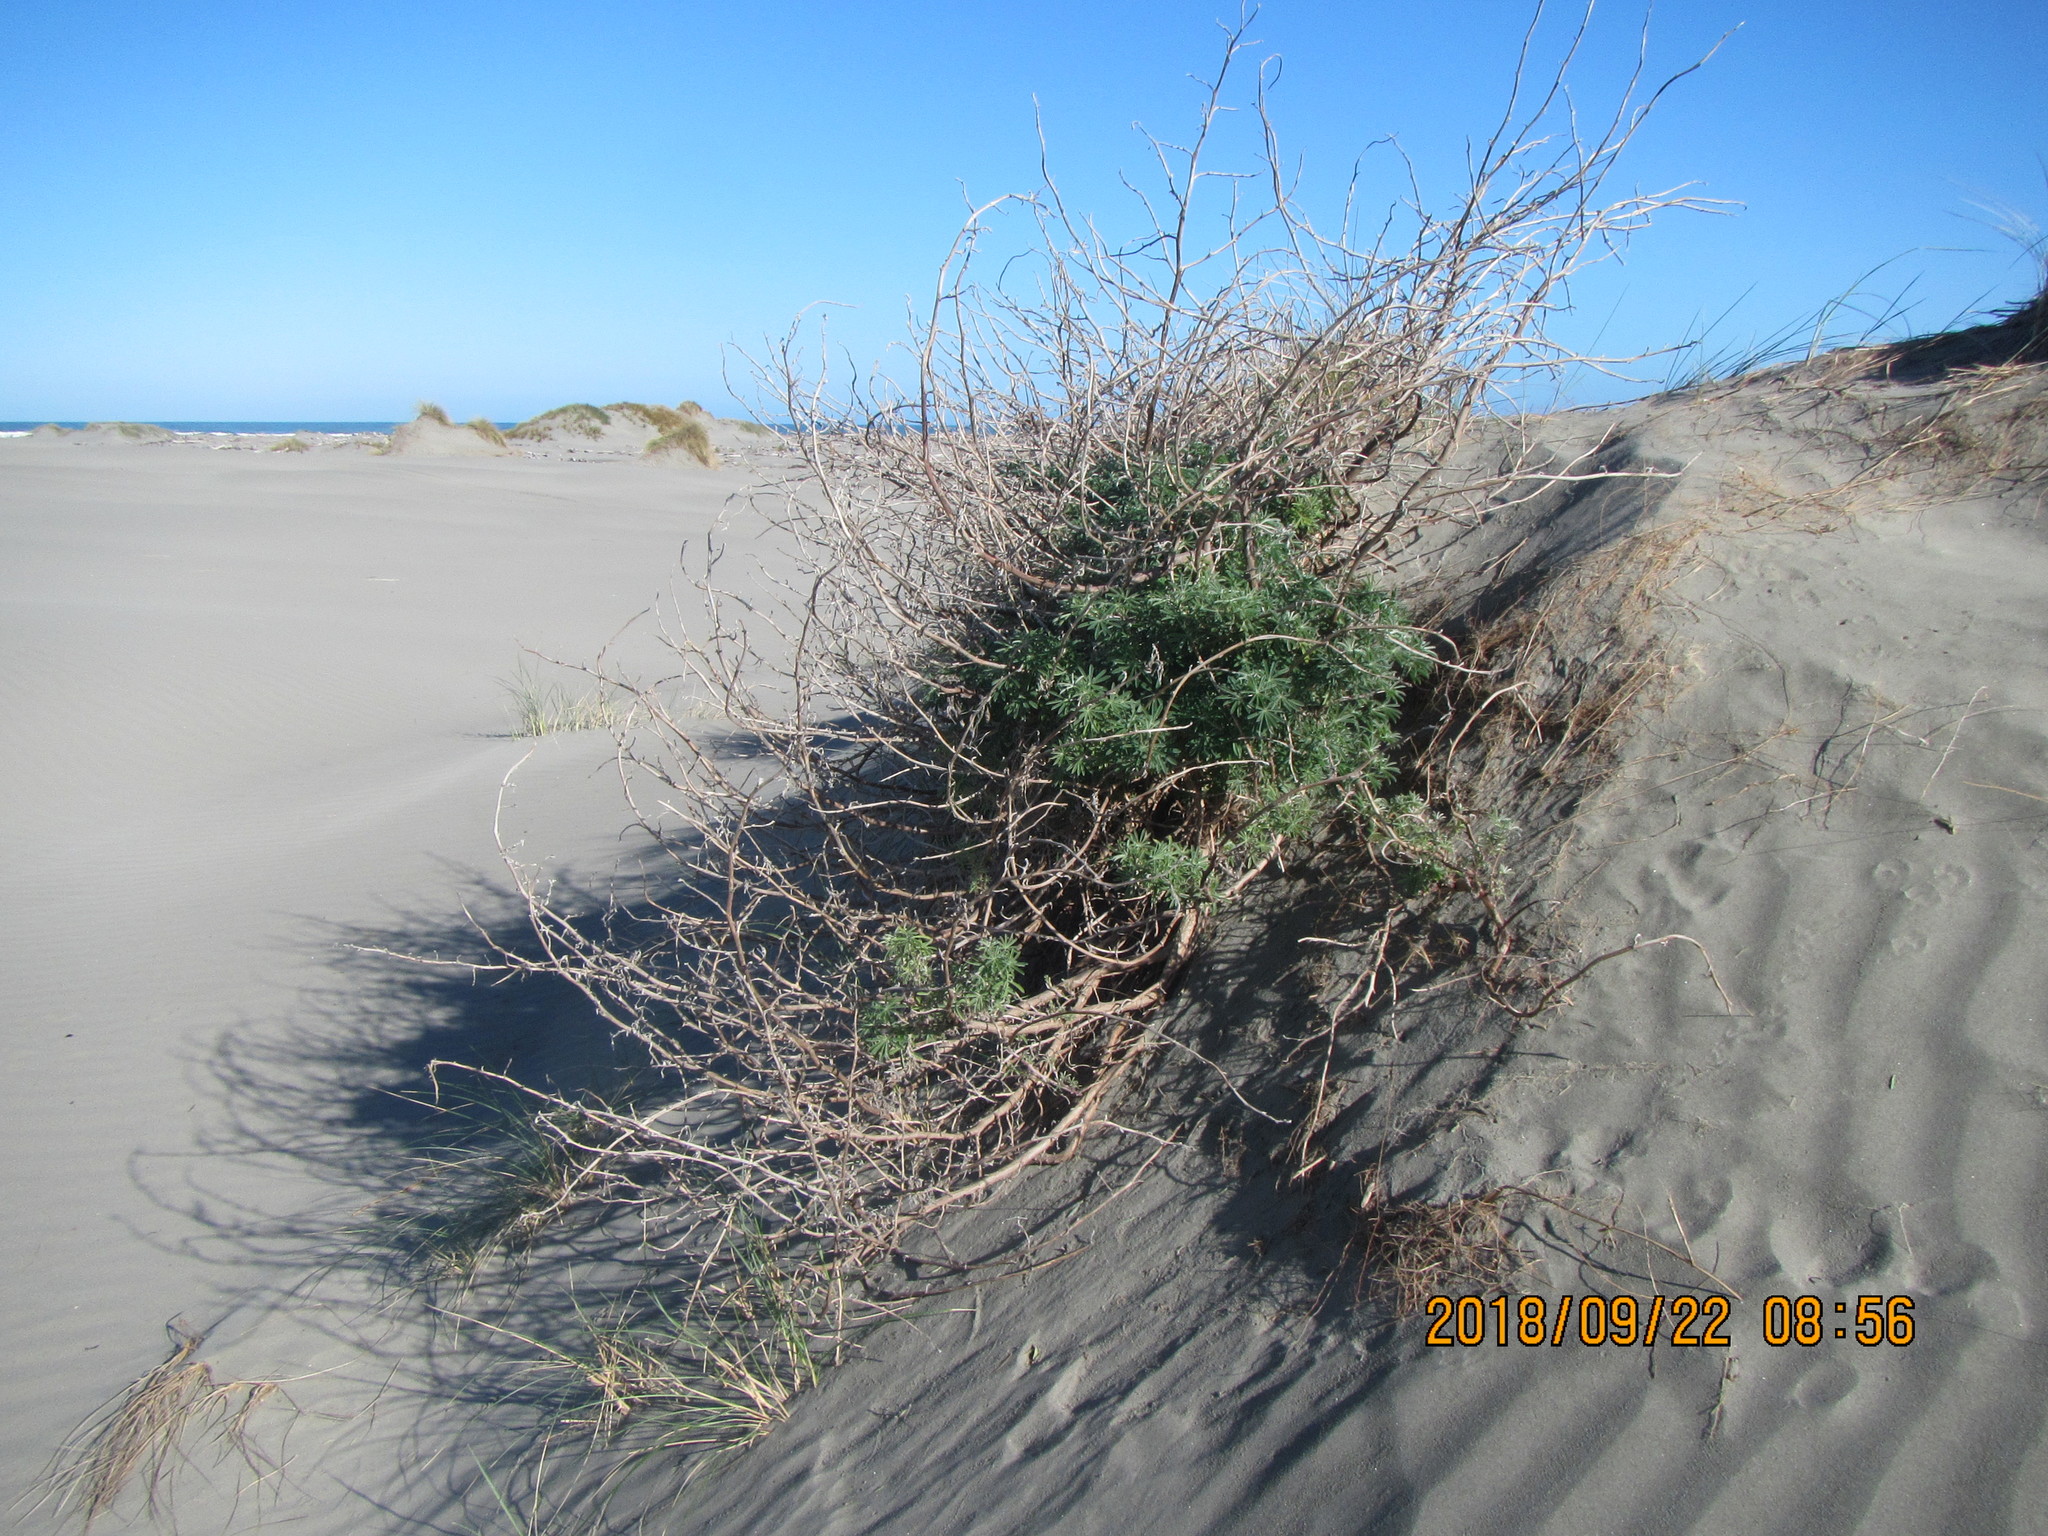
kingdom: Plantae
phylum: Tracheophyta
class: Magnoliopsida
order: Fabales
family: Fabaceae
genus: Lupinus
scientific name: Lupinus arboreus
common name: Yellow bush lupine
